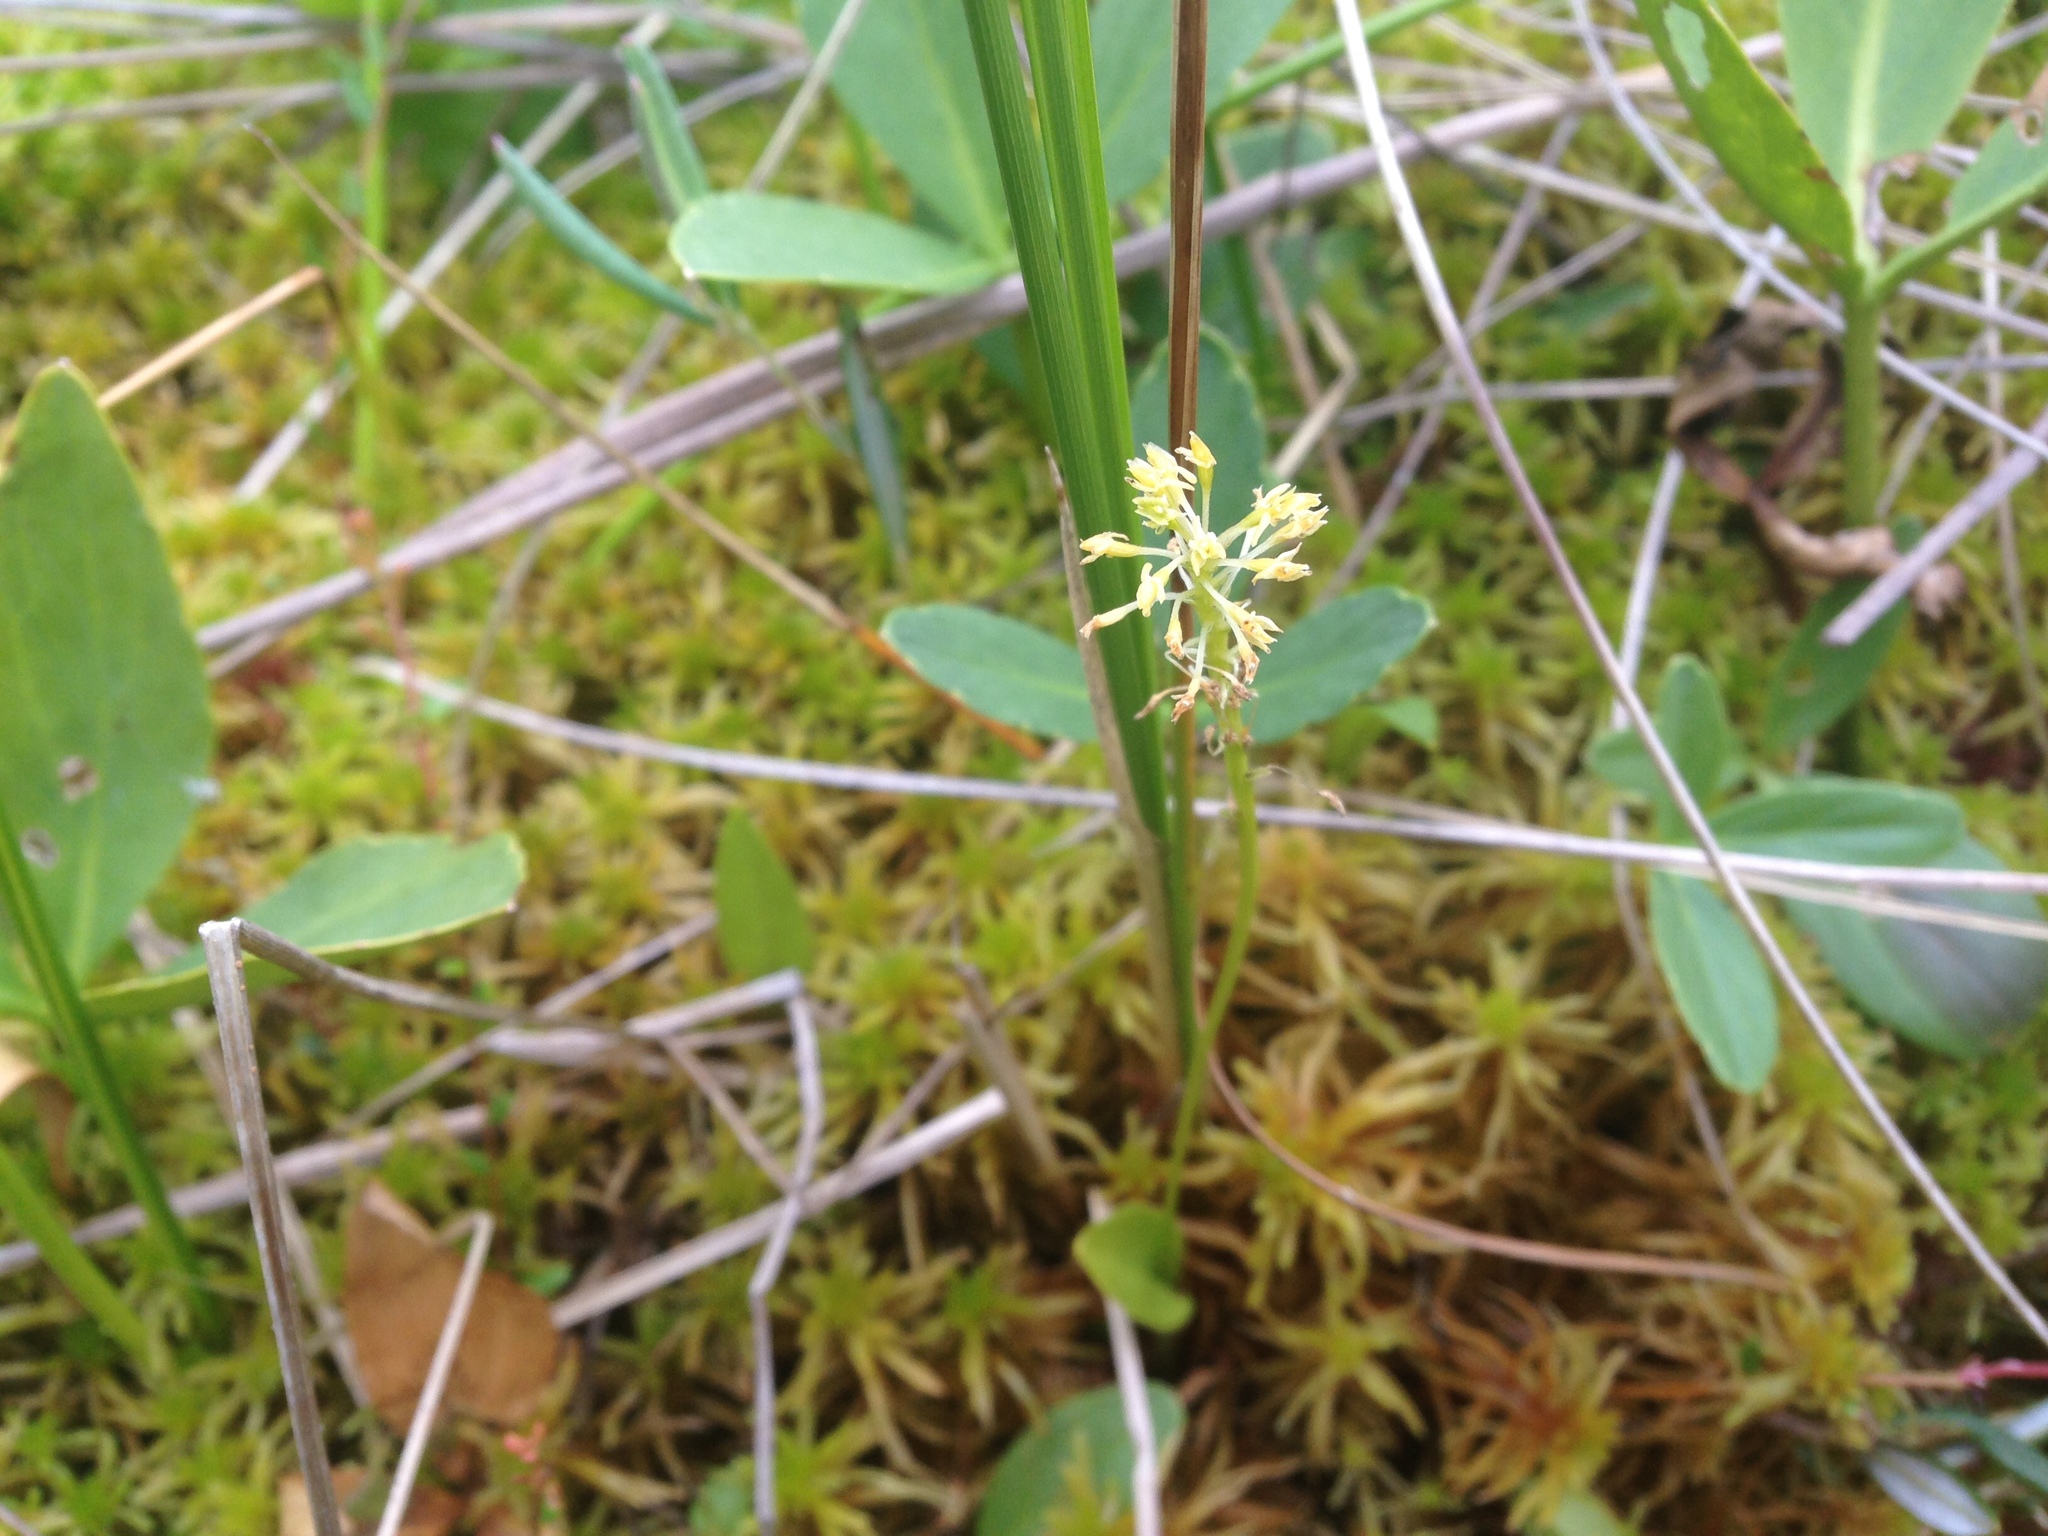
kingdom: Plantae
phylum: Tracheophyta
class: Liliopsida
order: Asparagales
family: Orchidaceae
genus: Malaxis
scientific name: Malaxis unifolia
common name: Green adder's-mouth
